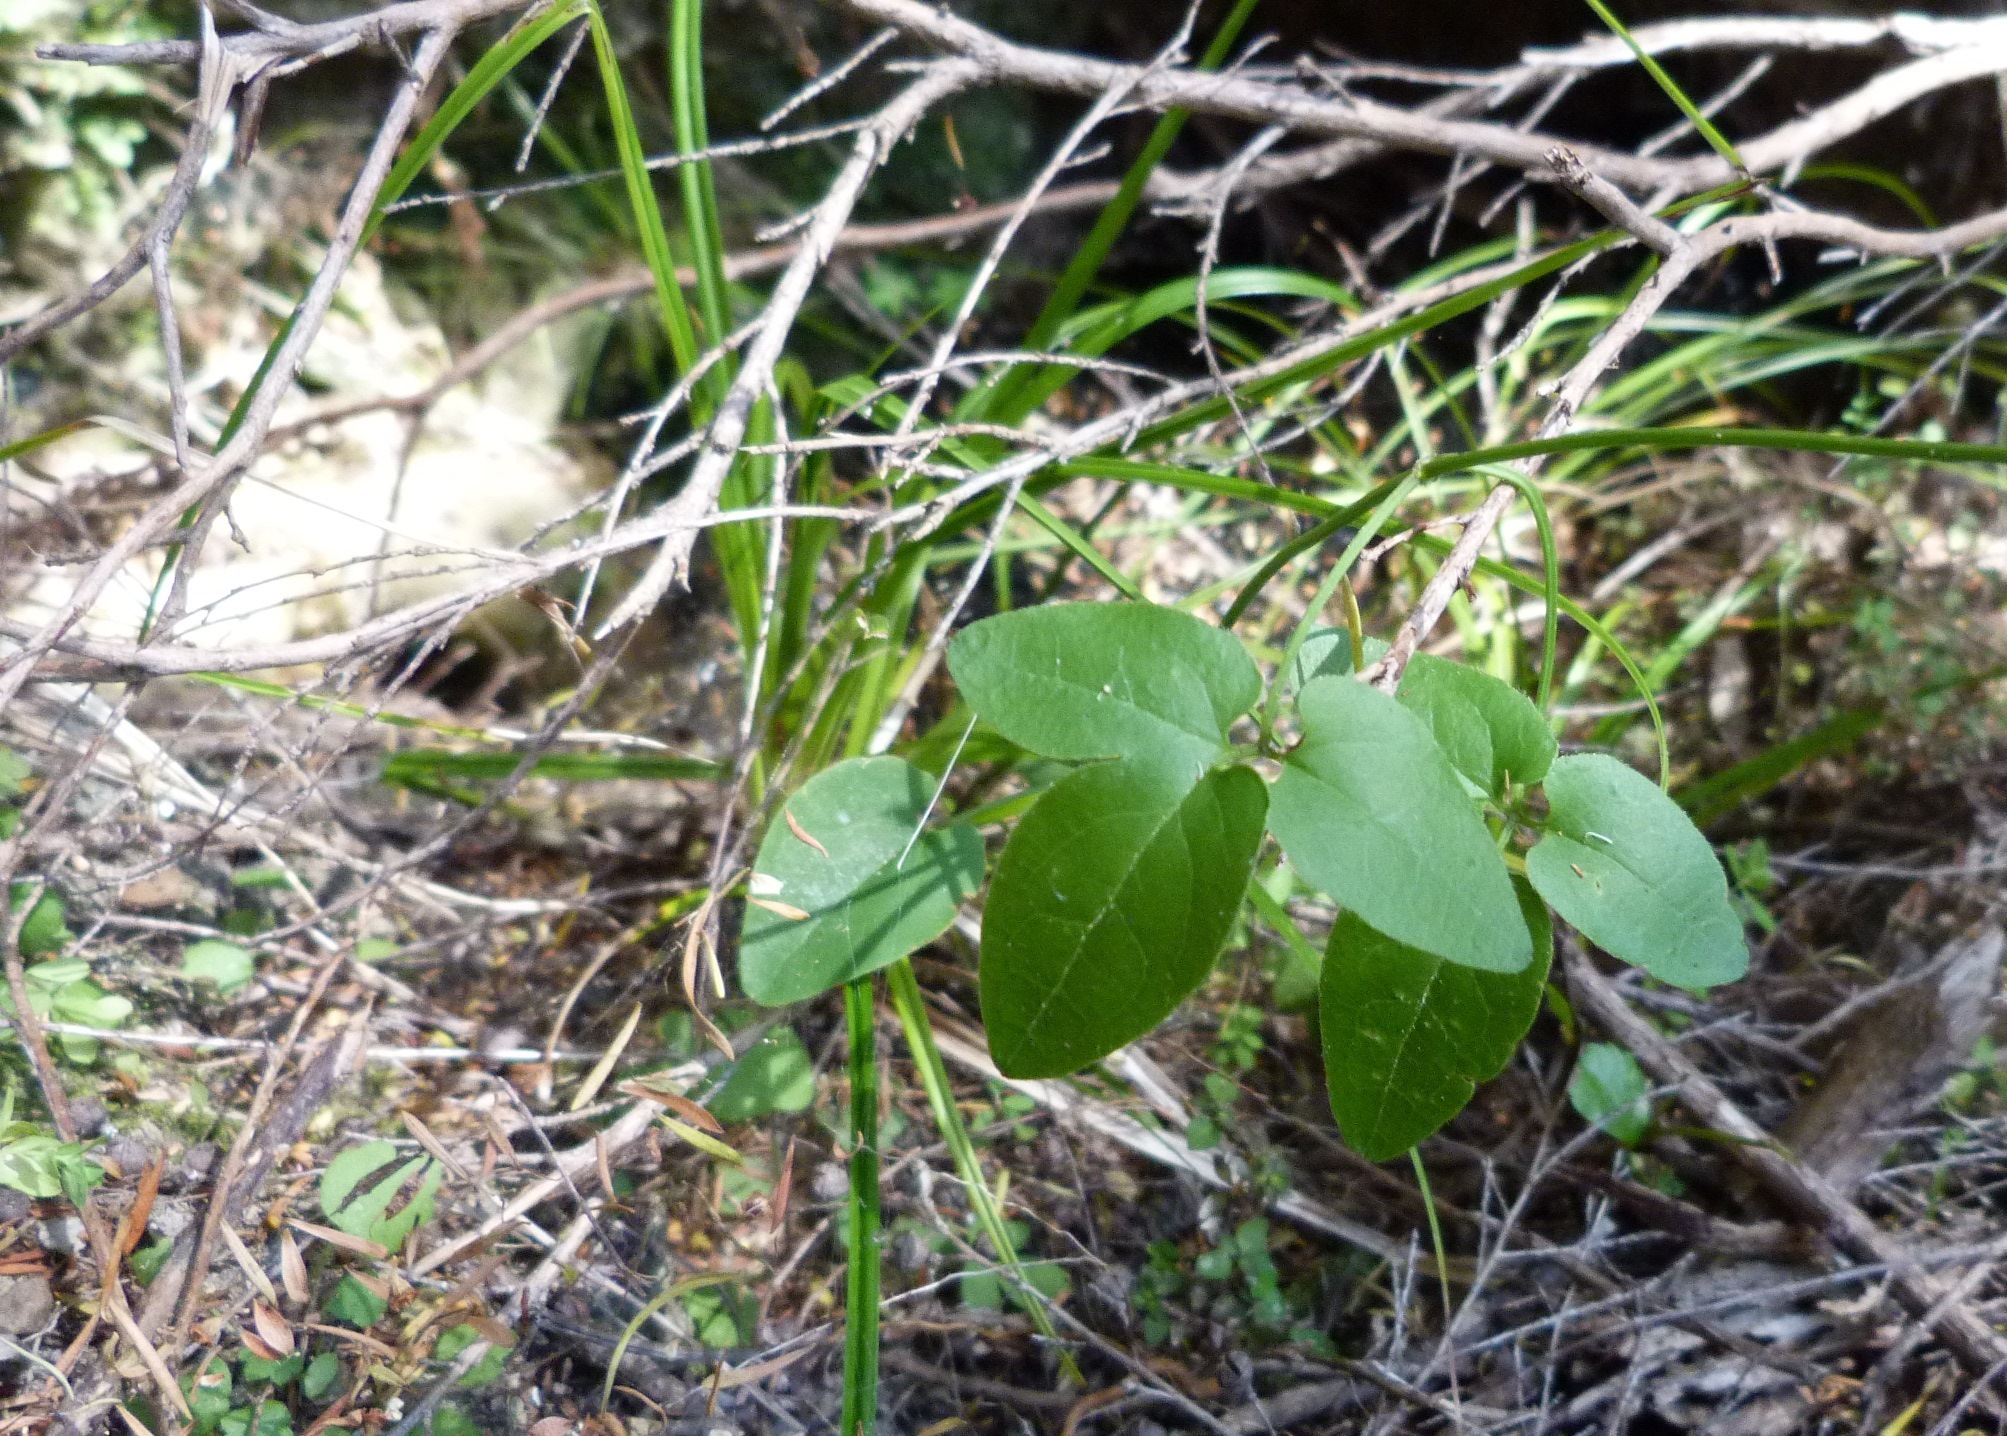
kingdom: Plantae
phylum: Tracheophyta
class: Magnoliopsida
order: Ranunculales
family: Ranunculaceae
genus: Clematis
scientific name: Clematis foetida
